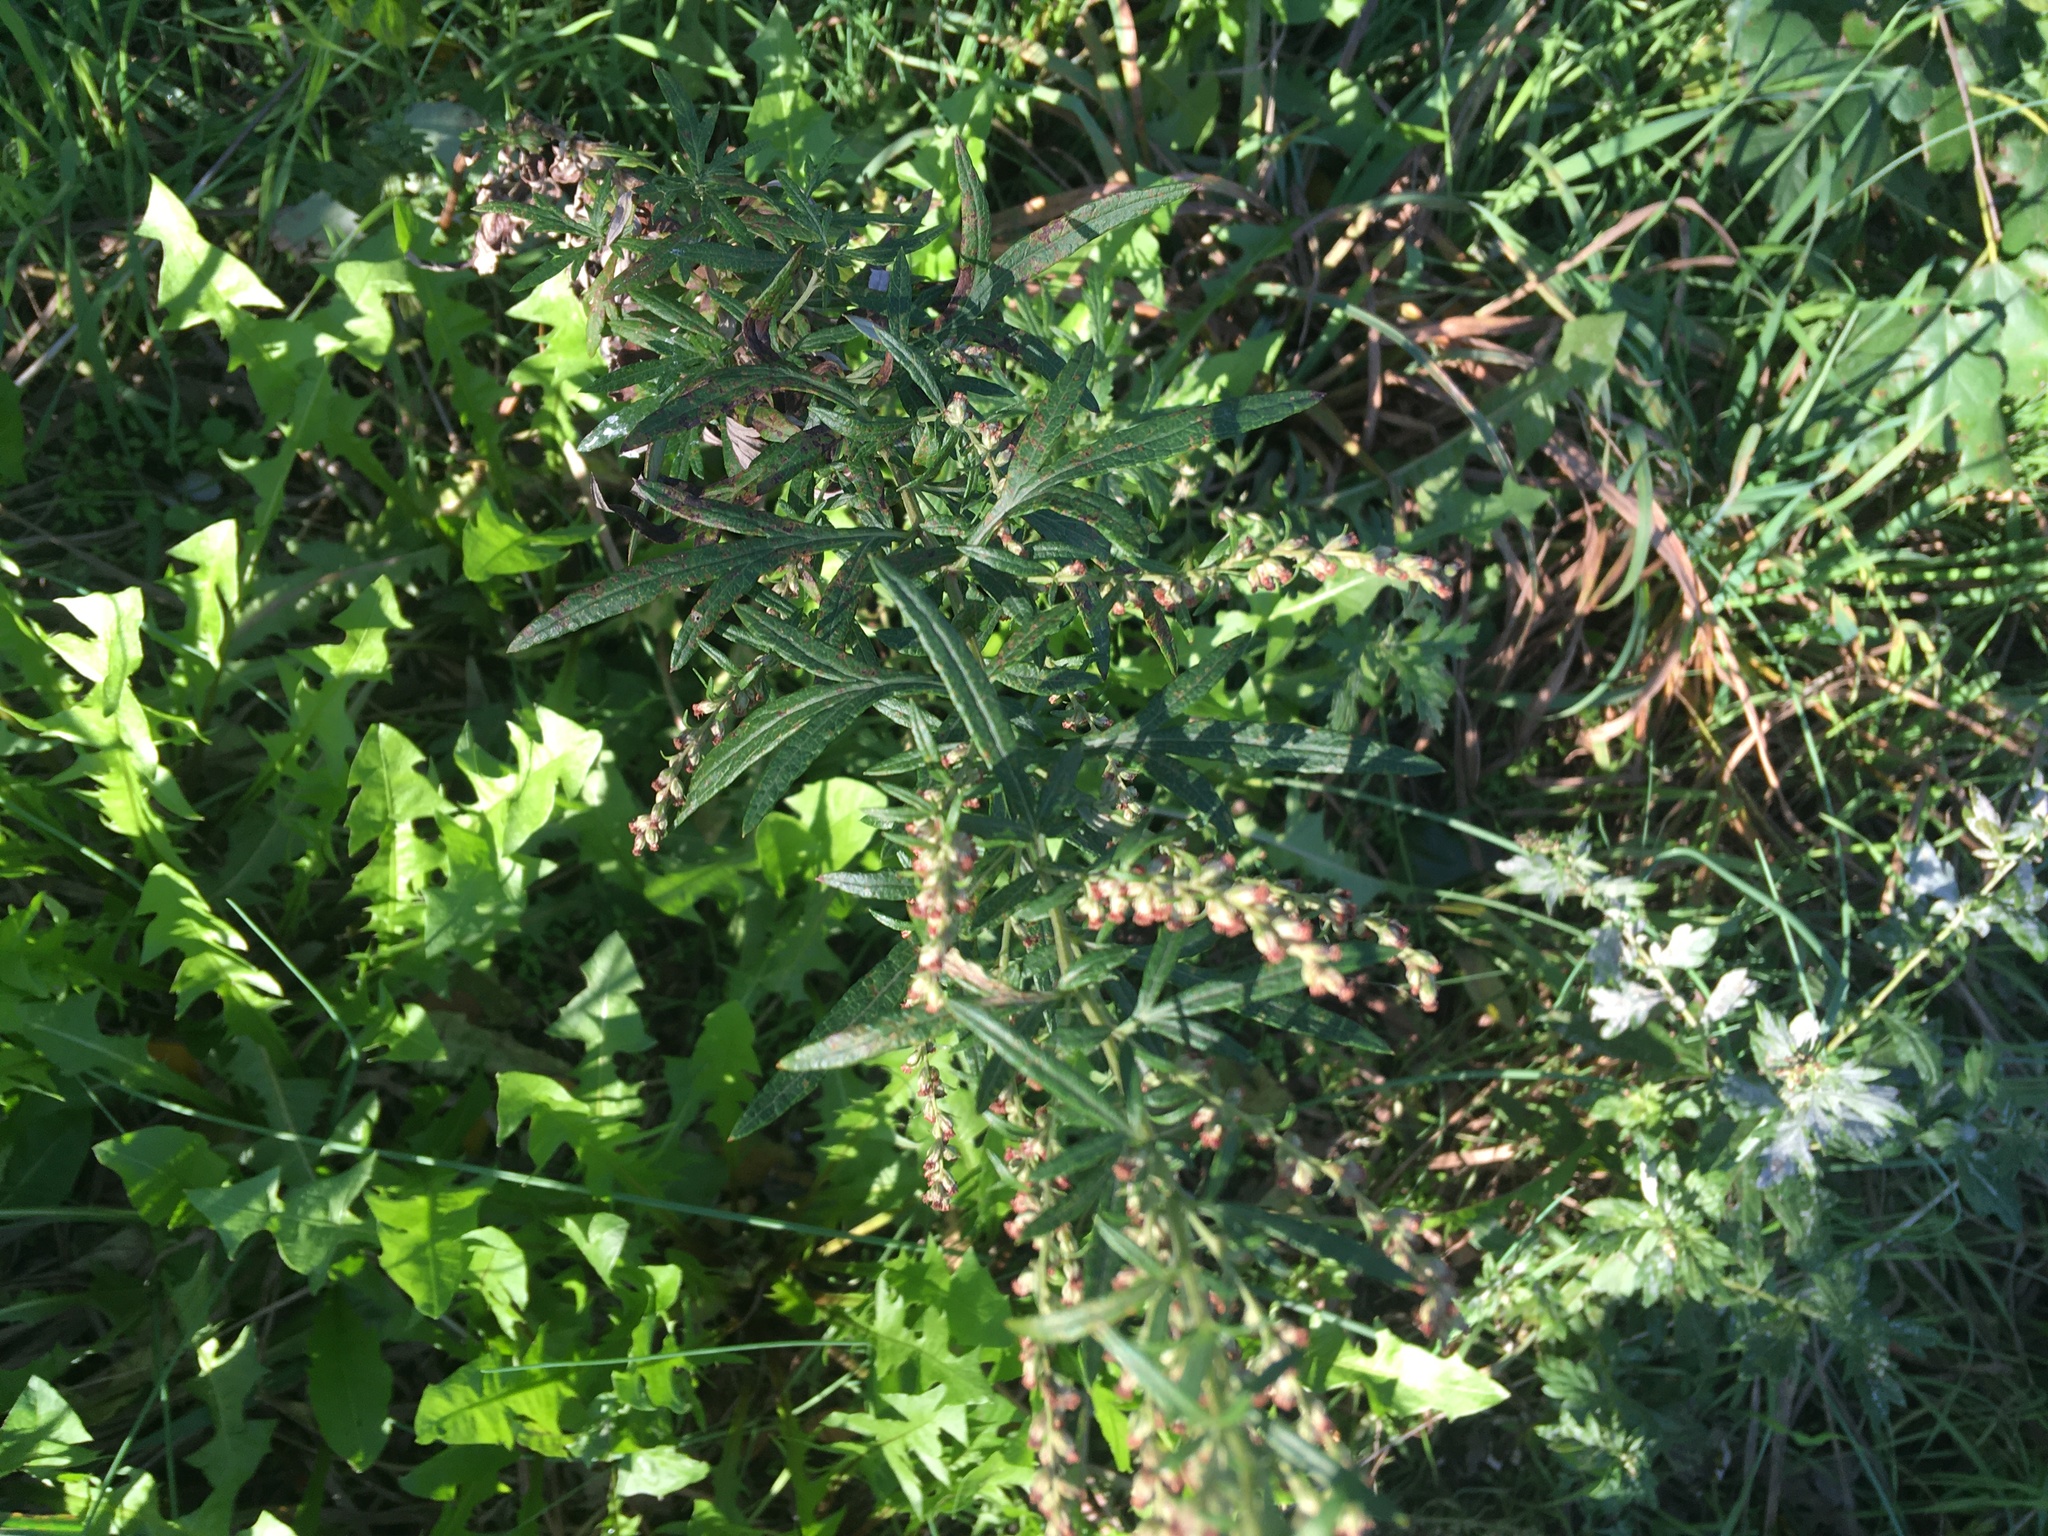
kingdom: Plantae
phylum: Tracheophyta
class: Magnoliopsida
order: Asterales
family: Asteraceae
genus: Artemisia
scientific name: Artemisia vulgaris
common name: Mugwort
